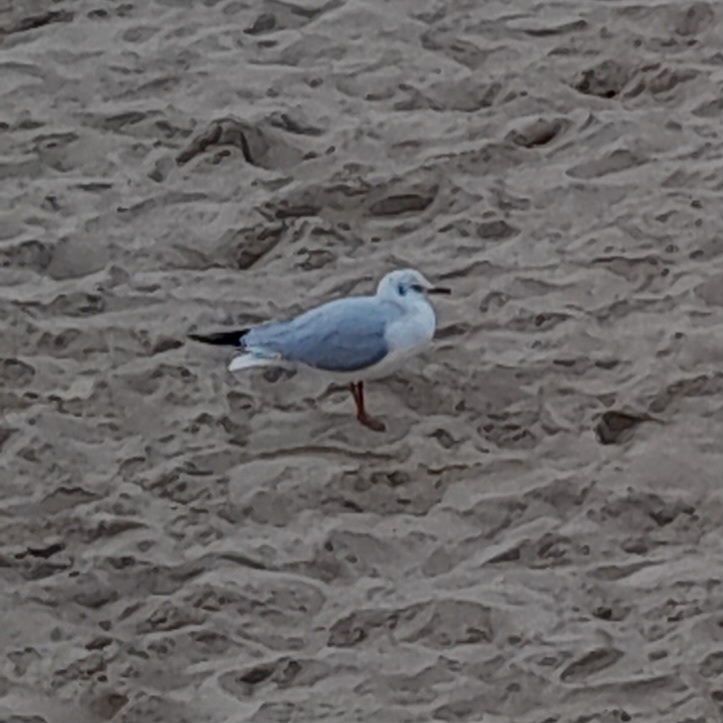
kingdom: Animalia
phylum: Chordata
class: Aves
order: Charadriiformes
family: Laridae
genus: Chroicocephalus
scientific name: Chroicocephalus ridibundus
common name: Black-headed gull
